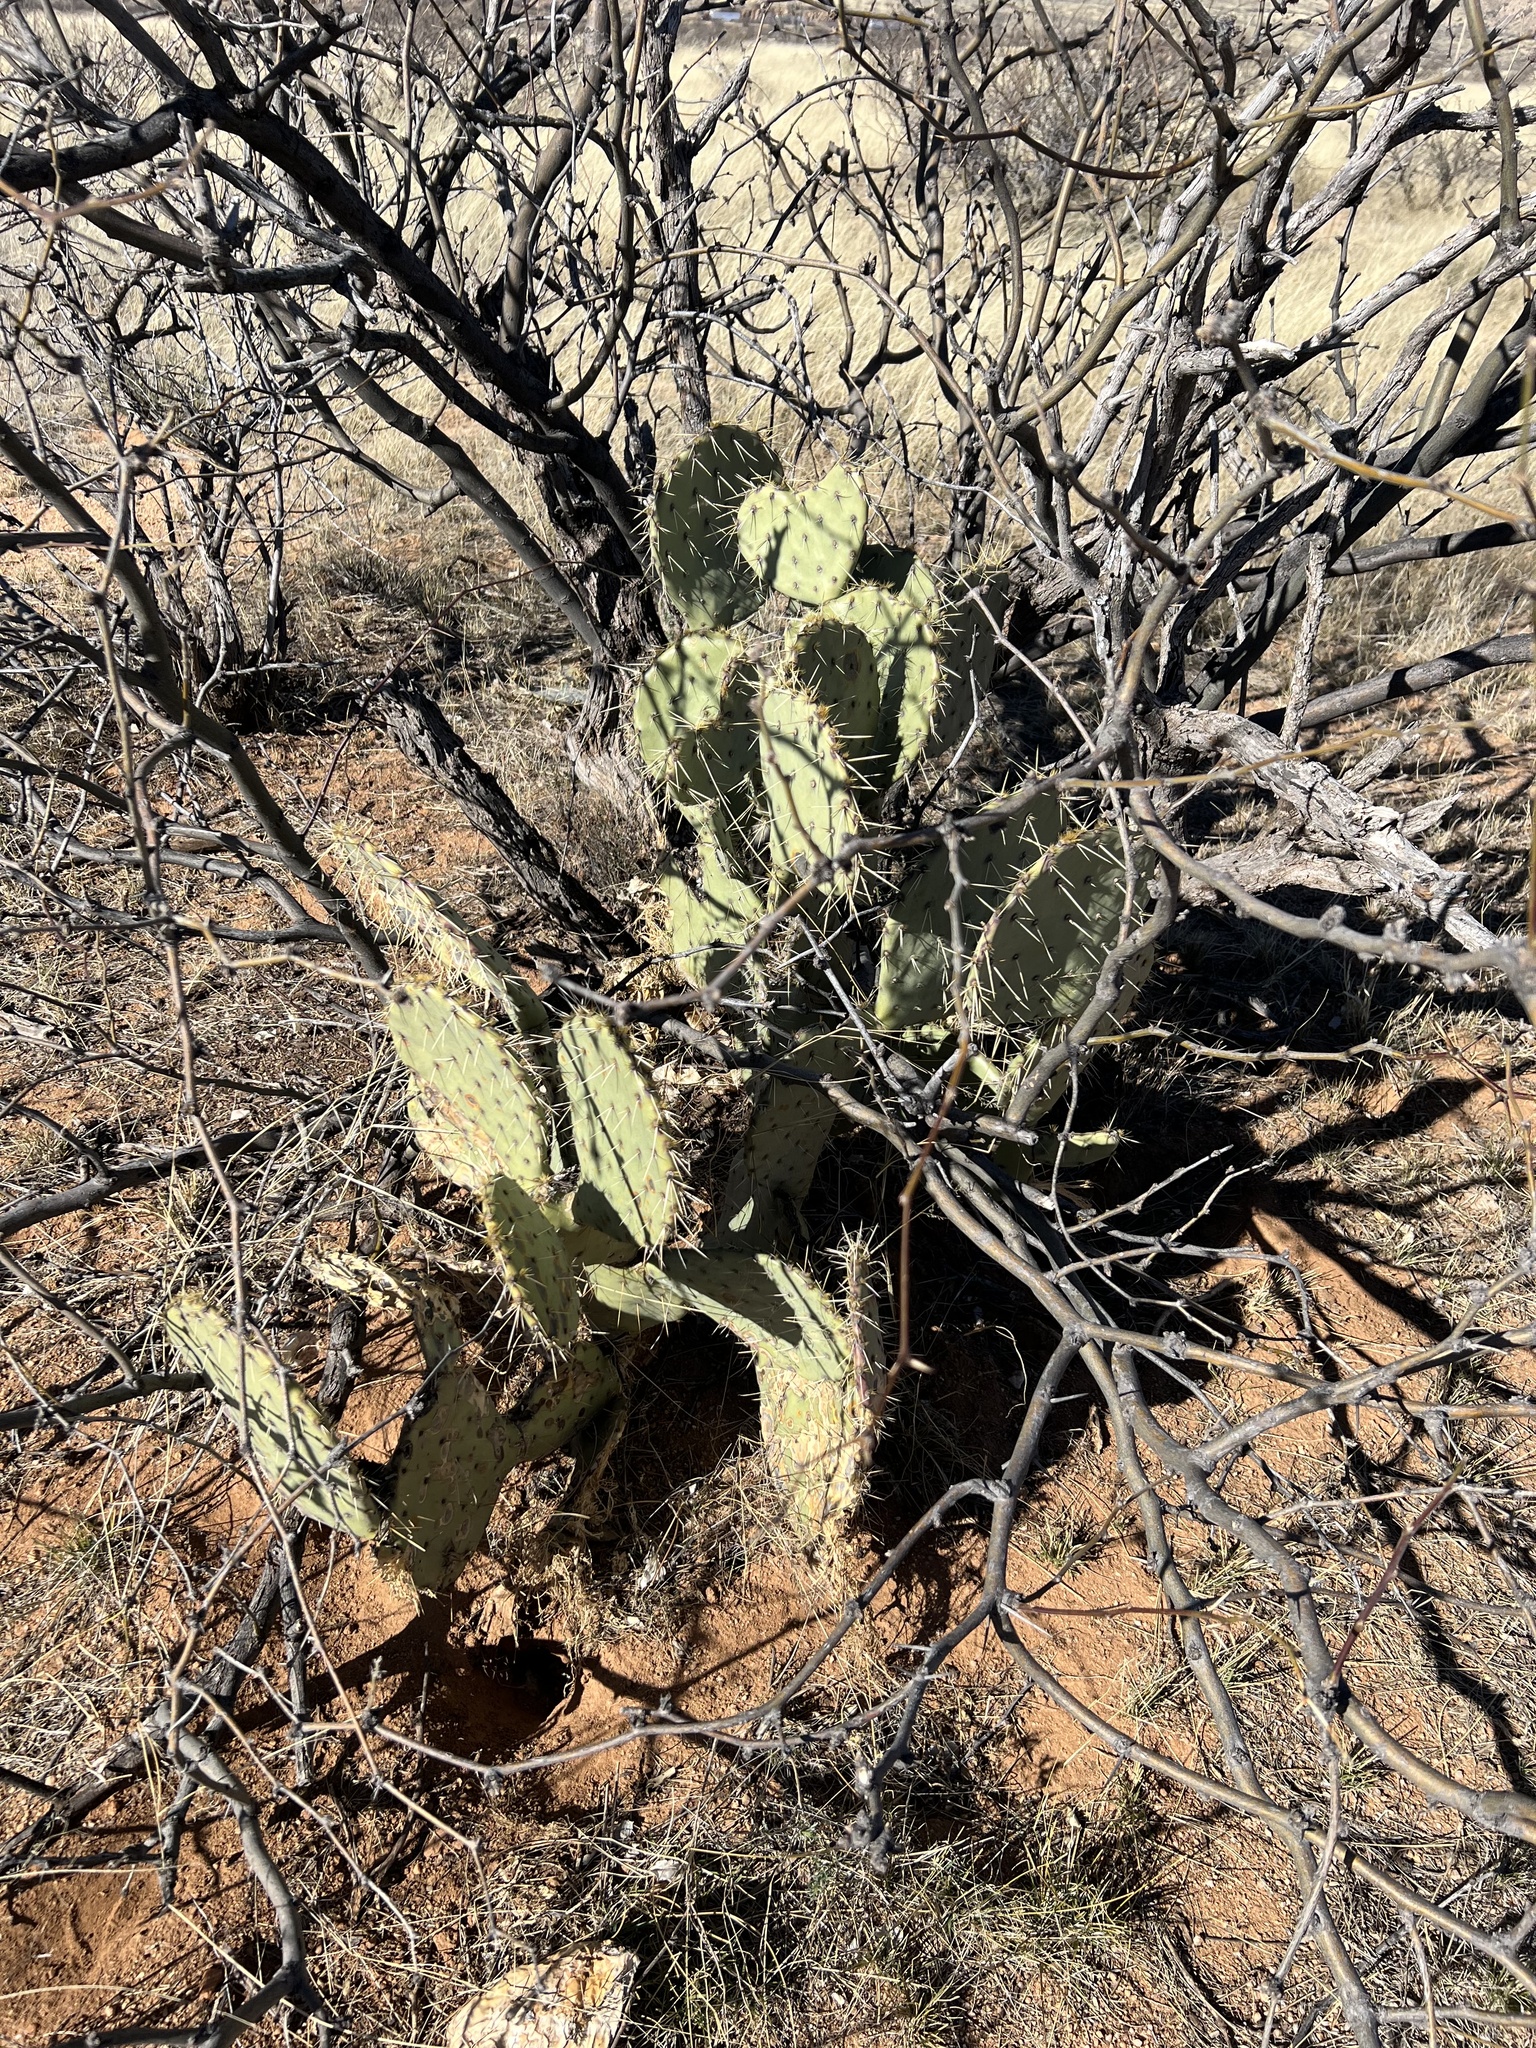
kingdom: Plantae
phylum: Tracheophyta
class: Magnoliopsida
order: Caryophyllales
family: Cactaceae
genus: Opuntia
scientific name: Opuntia engelmannii
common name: Cactus-apple
